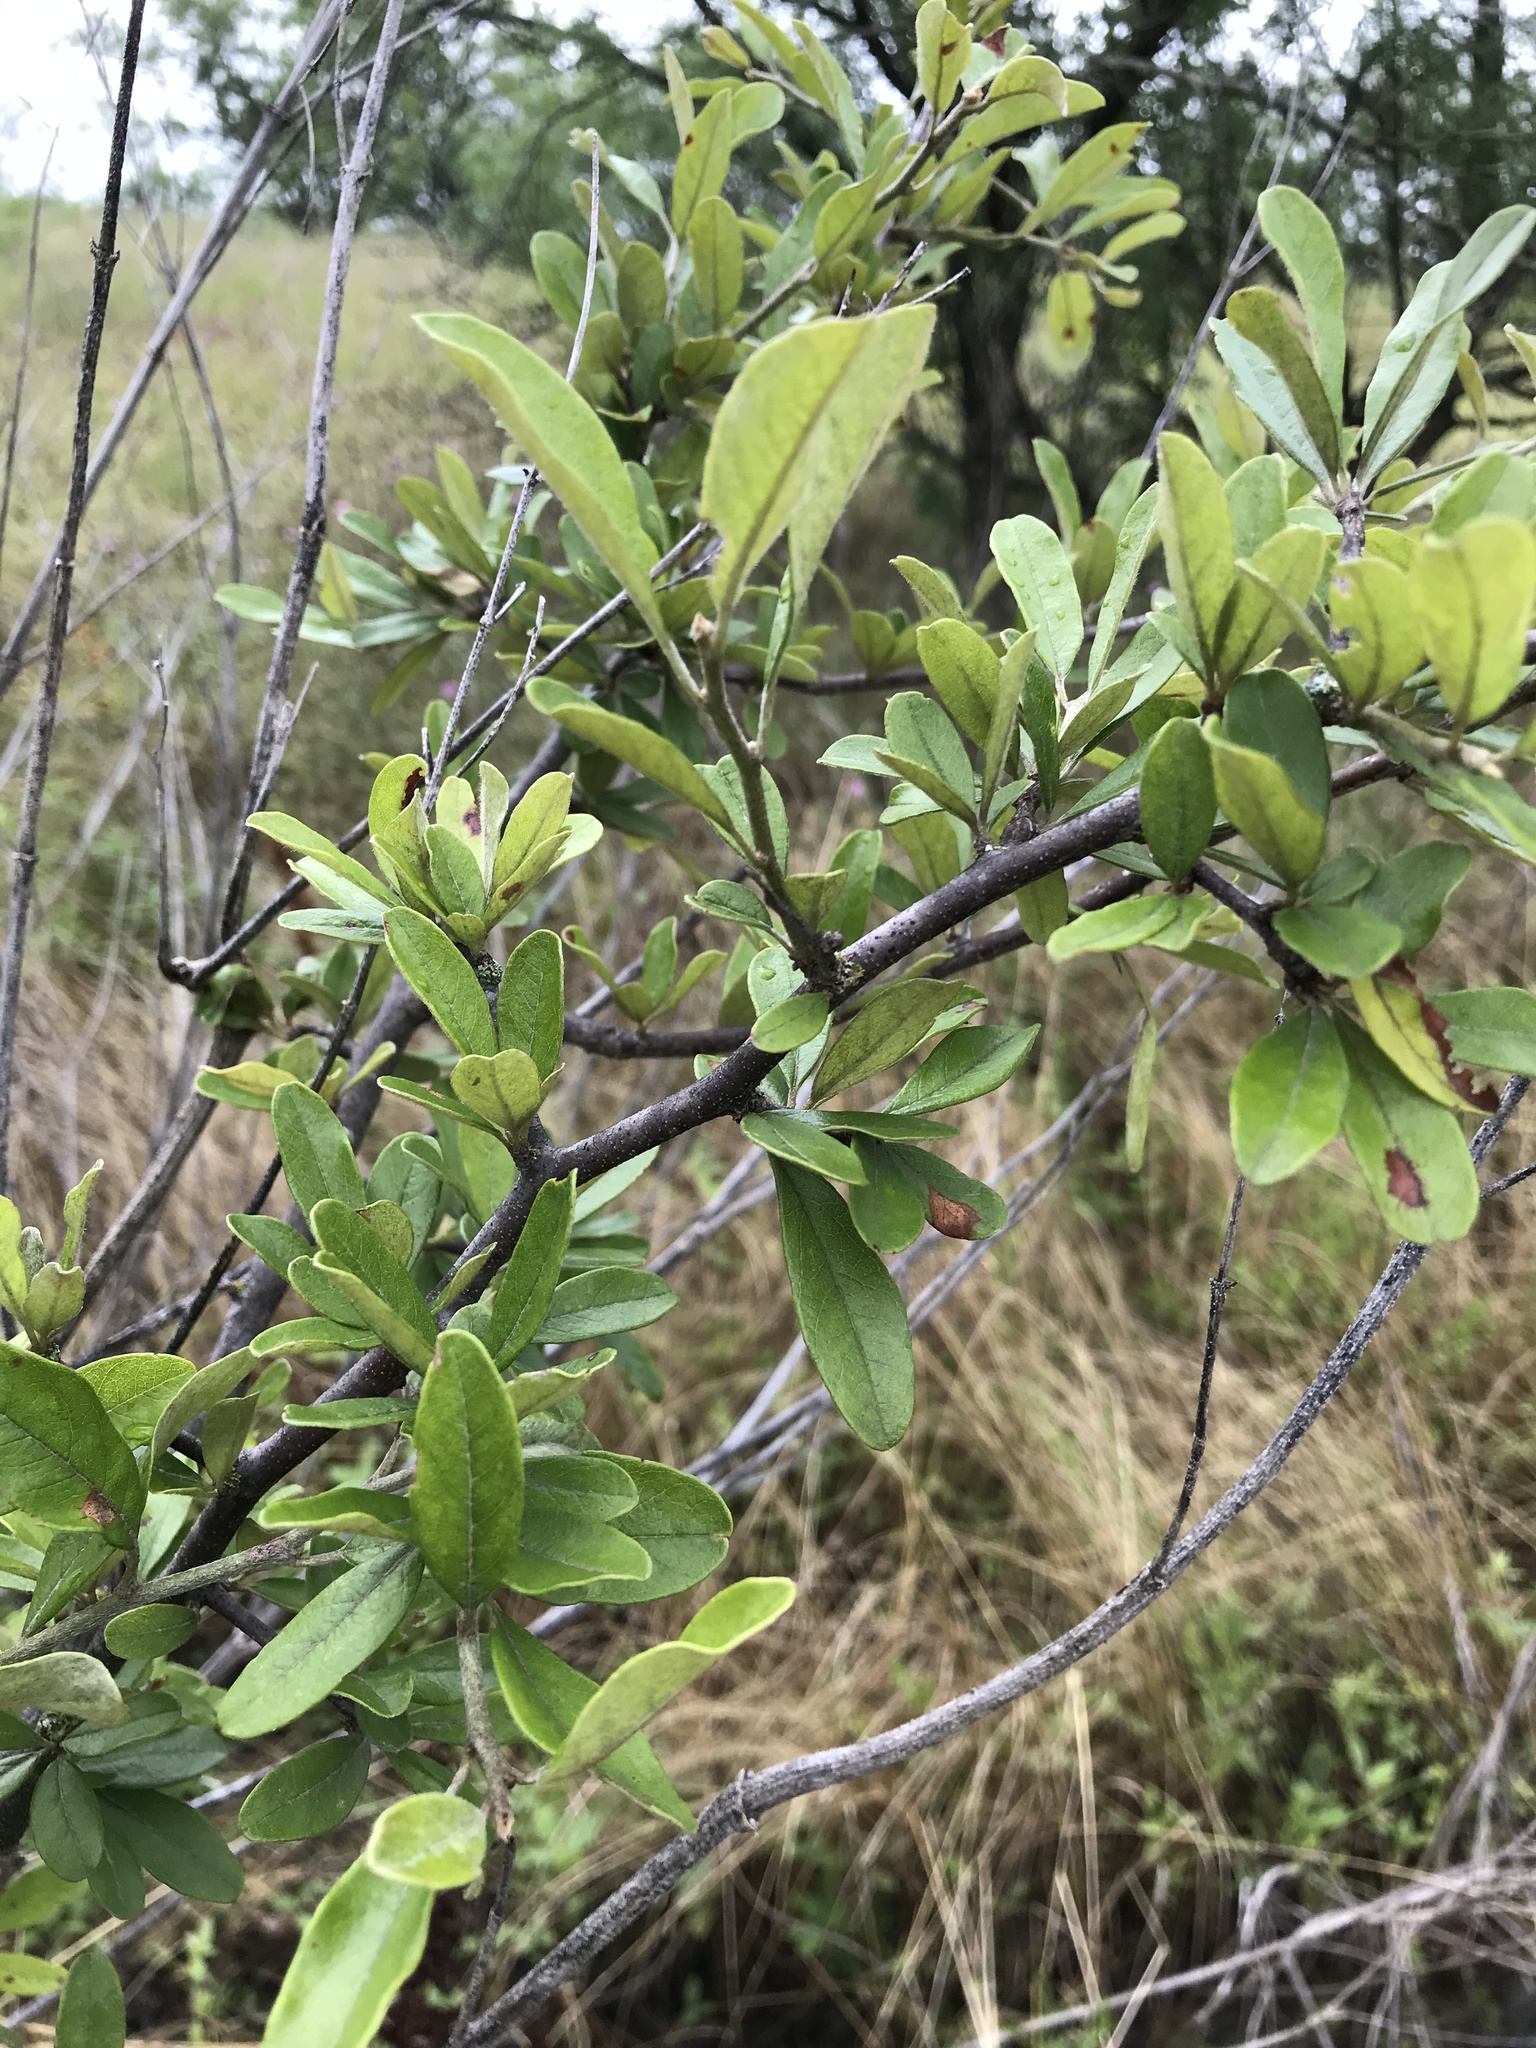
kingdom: Plantae
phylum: Tracheophyta
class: Magnoliopsida
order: Ericales
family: Sapotaceae
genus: Sideroxylon
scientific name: Sideroxylon lanuginosum
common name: Chittamwood
